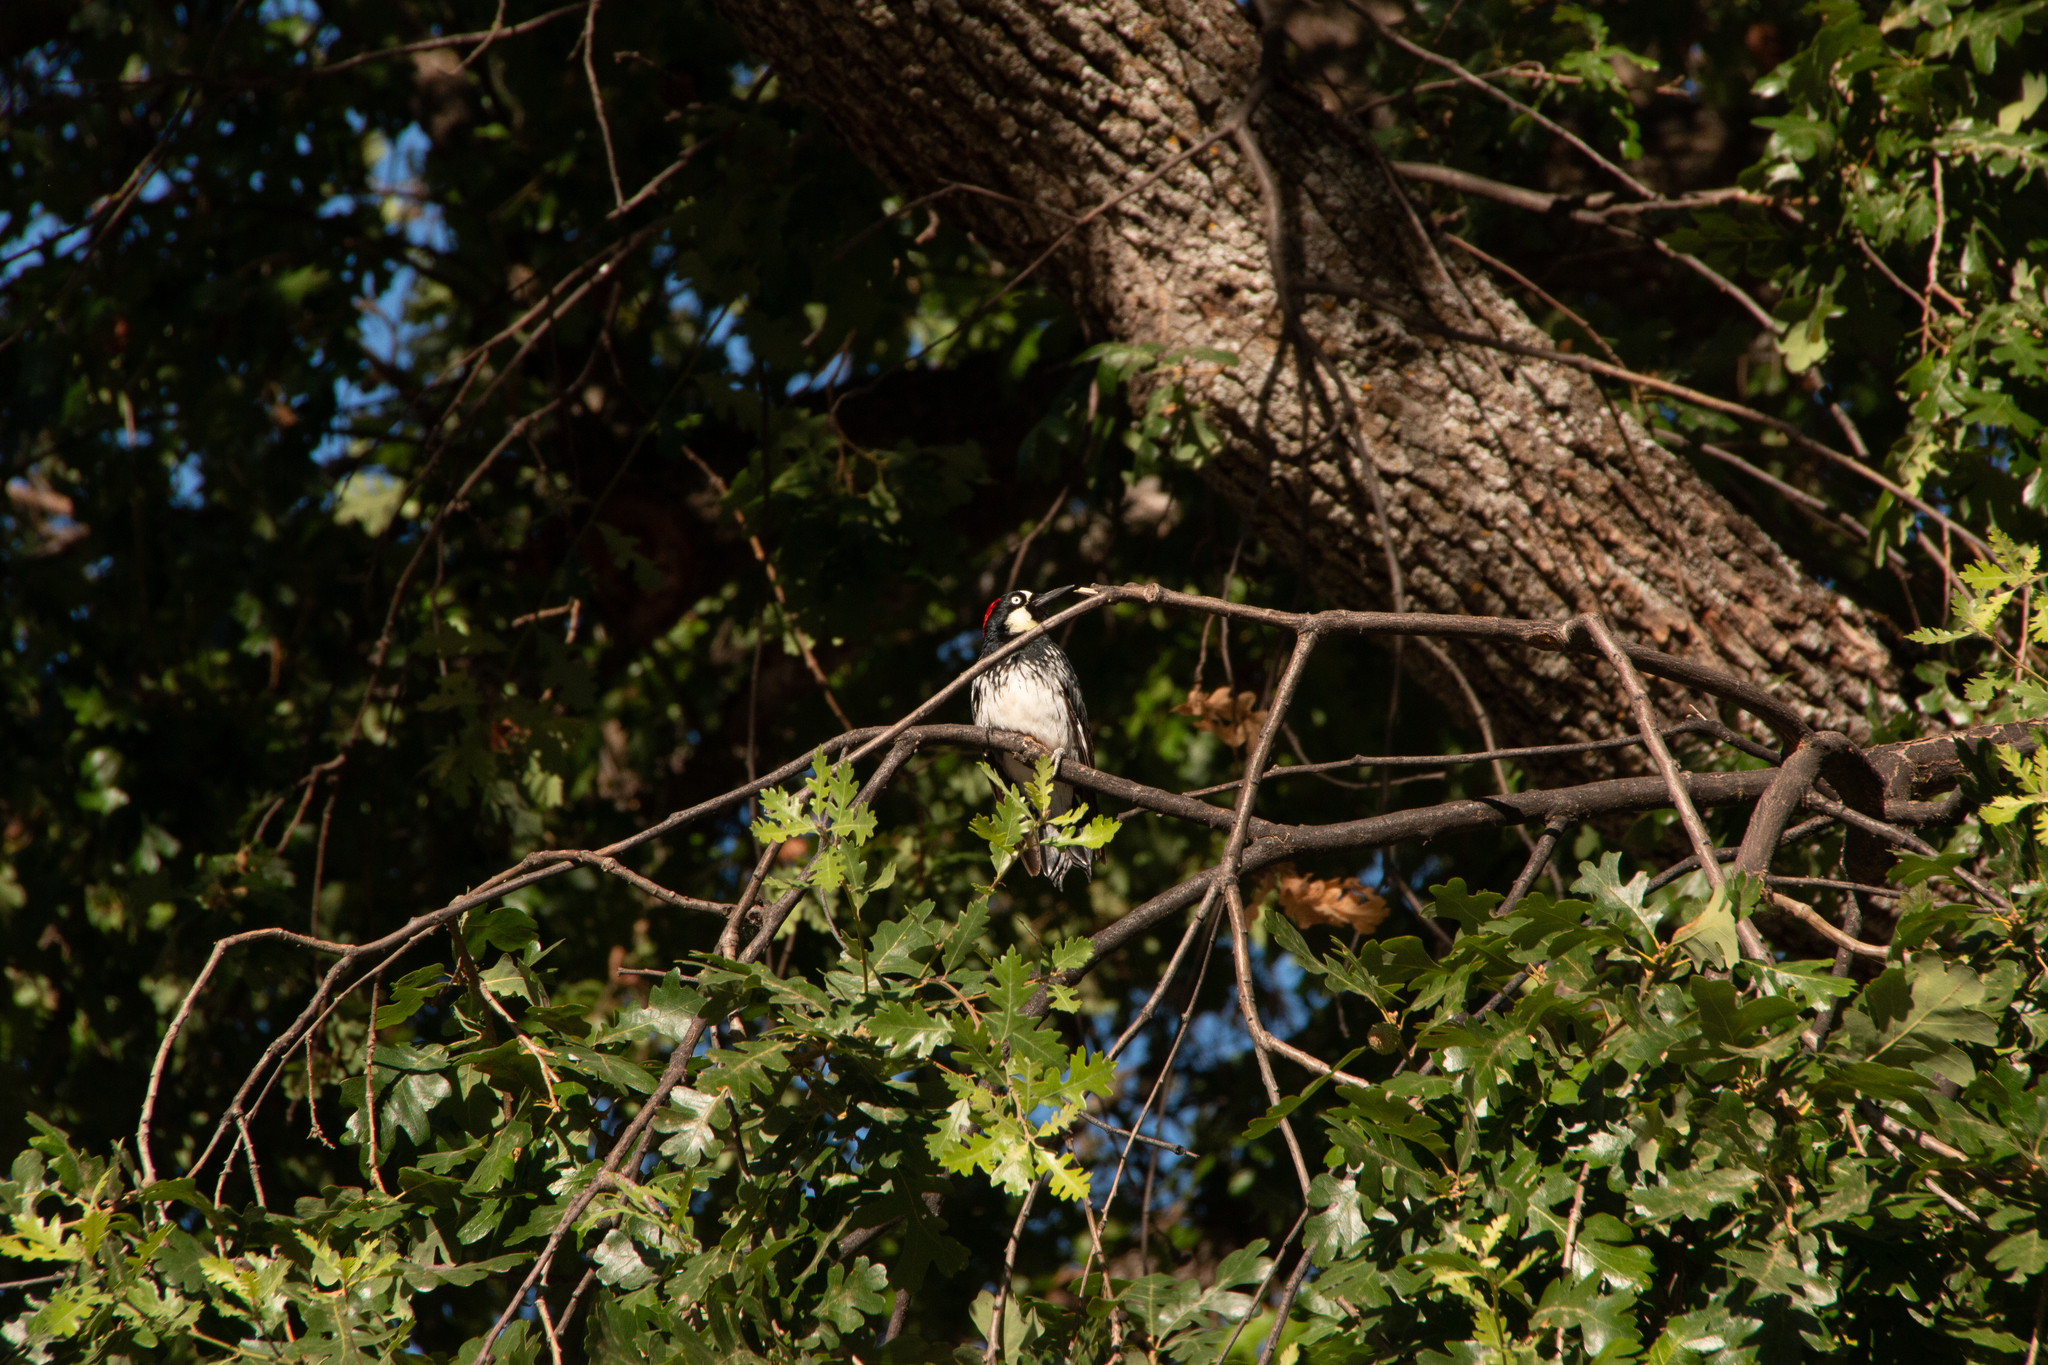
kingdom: Animalia
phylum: Chordata
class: Aves
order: Piciformes
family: Picidae
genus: Melanerpes
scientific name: Melanerpes formicivorus
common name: Acorn woodpecker
